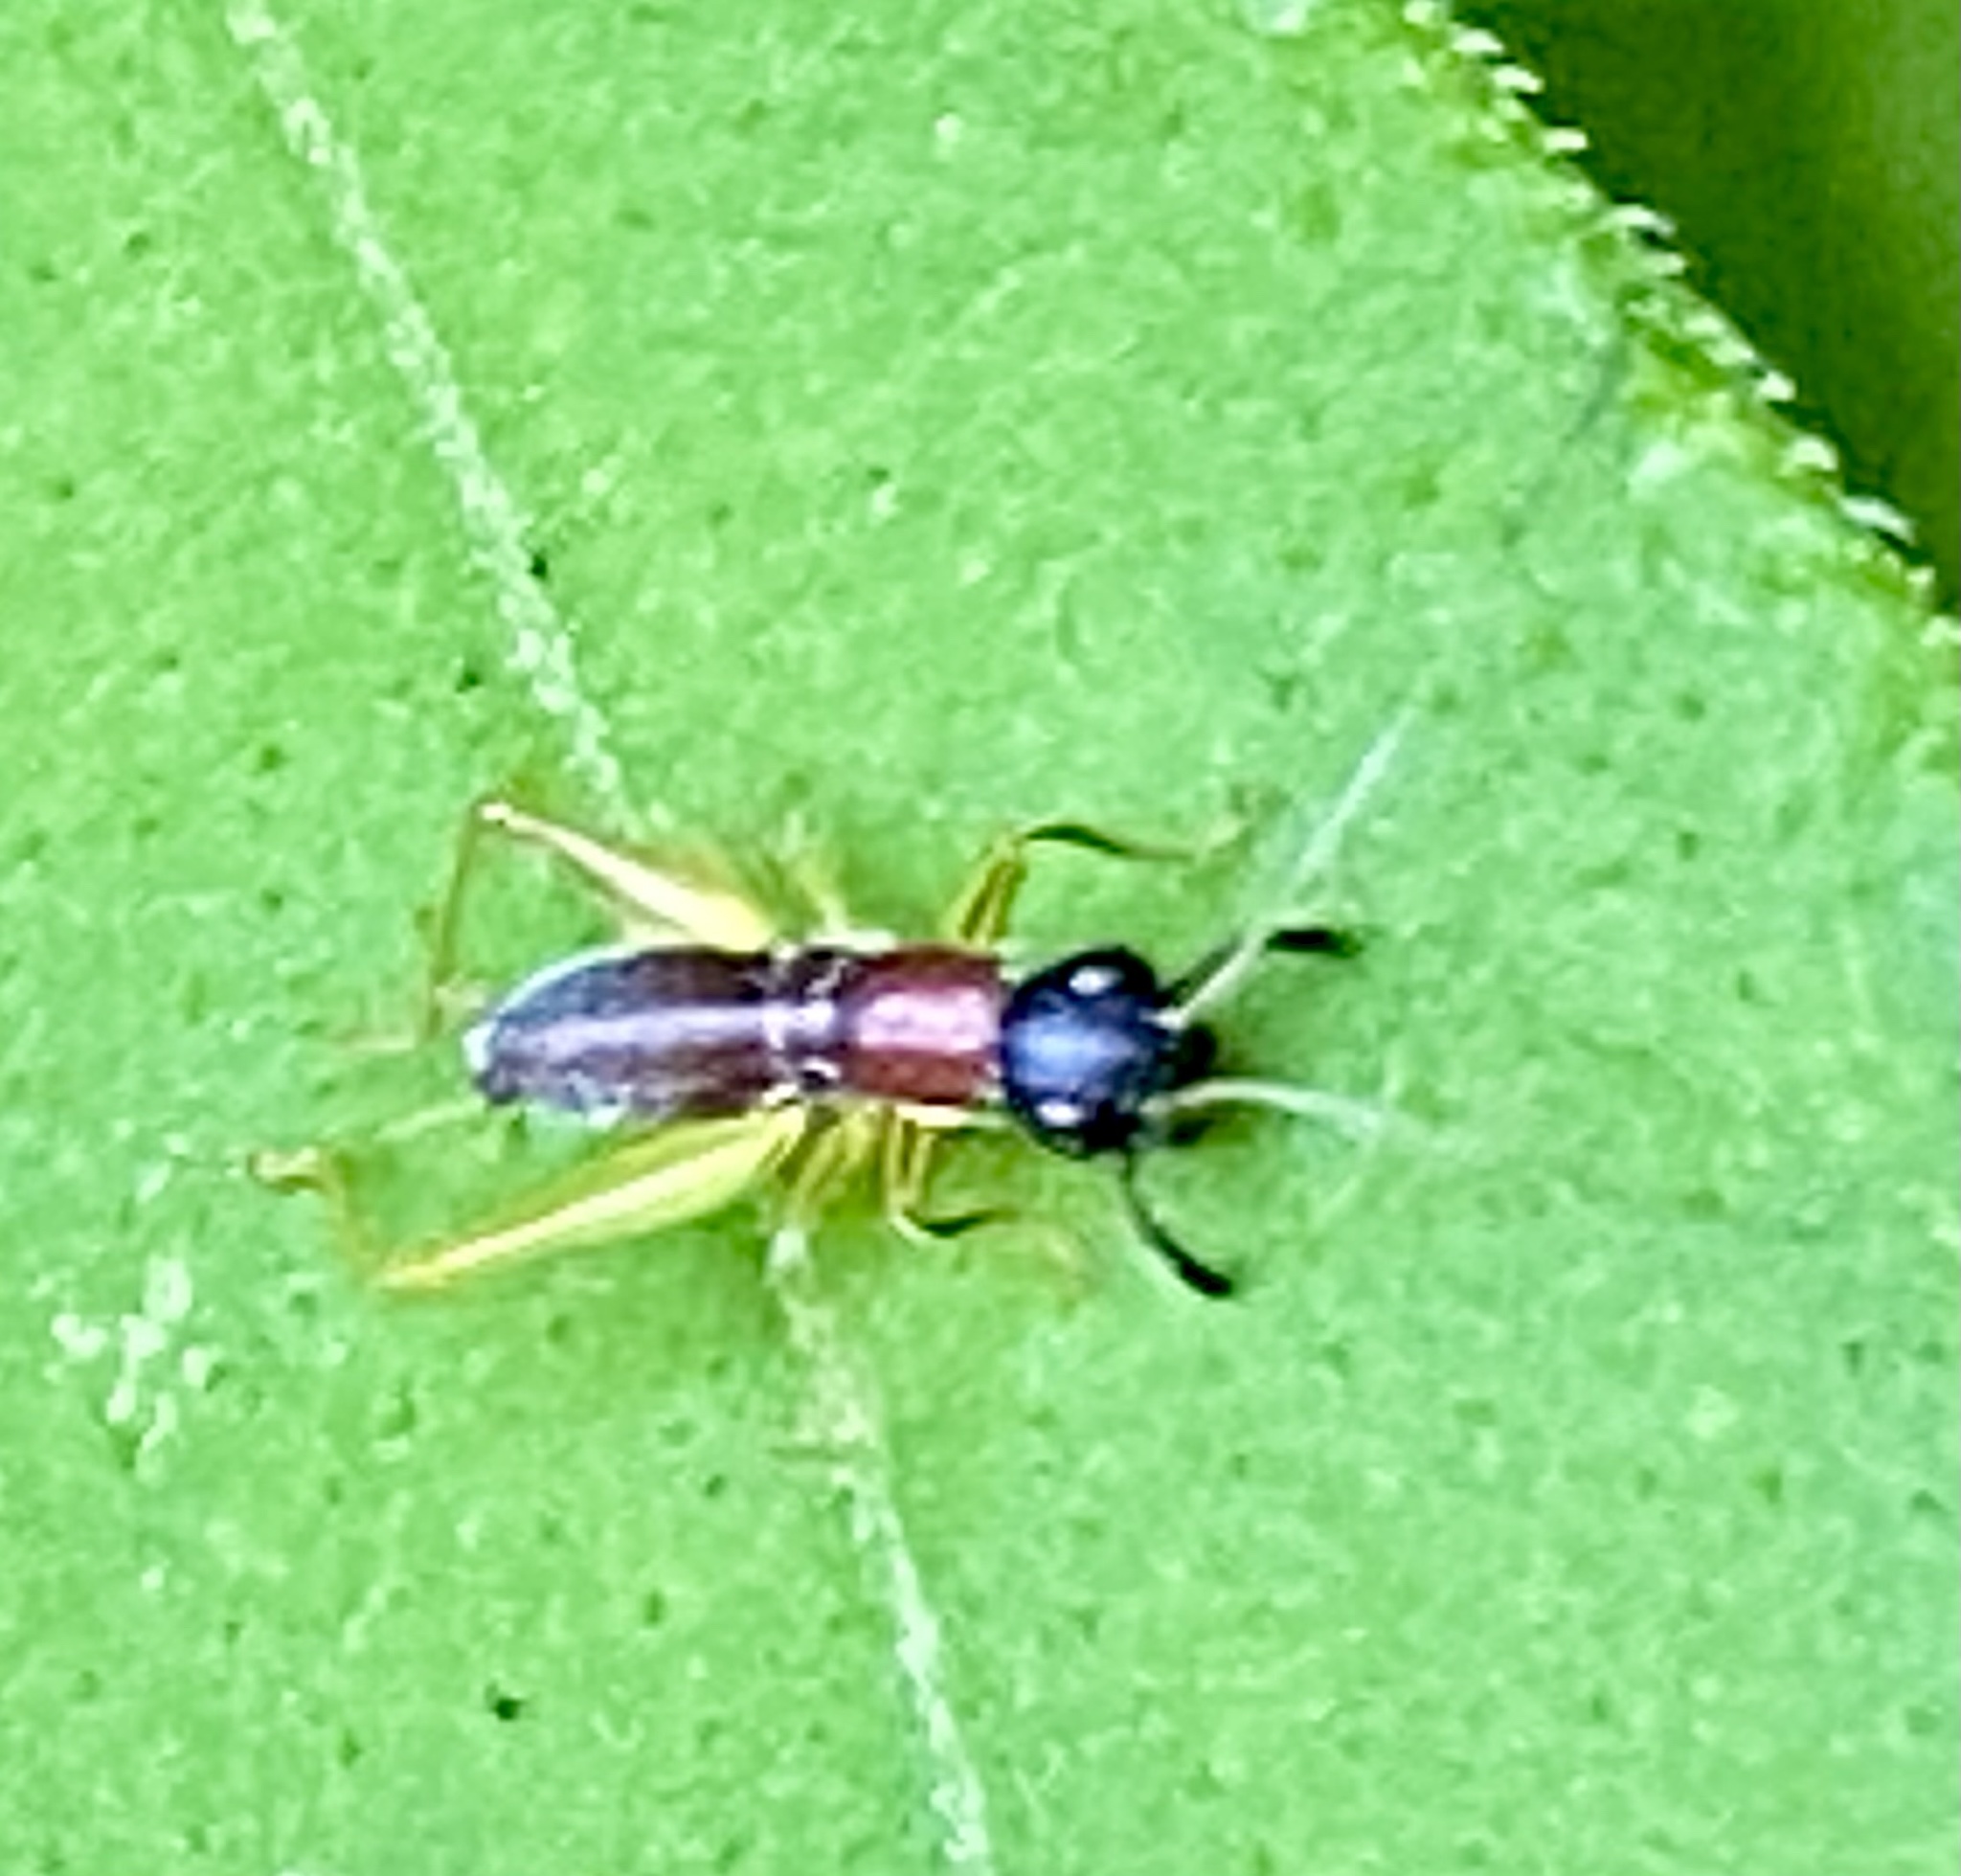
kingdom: Animalia
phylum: Arthropoda
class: Insecta
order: Orthoptera
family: Trigonidiidae
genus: Phyllopalpus
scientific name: Phyllopalpus pulchellus
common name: Handsome trig
